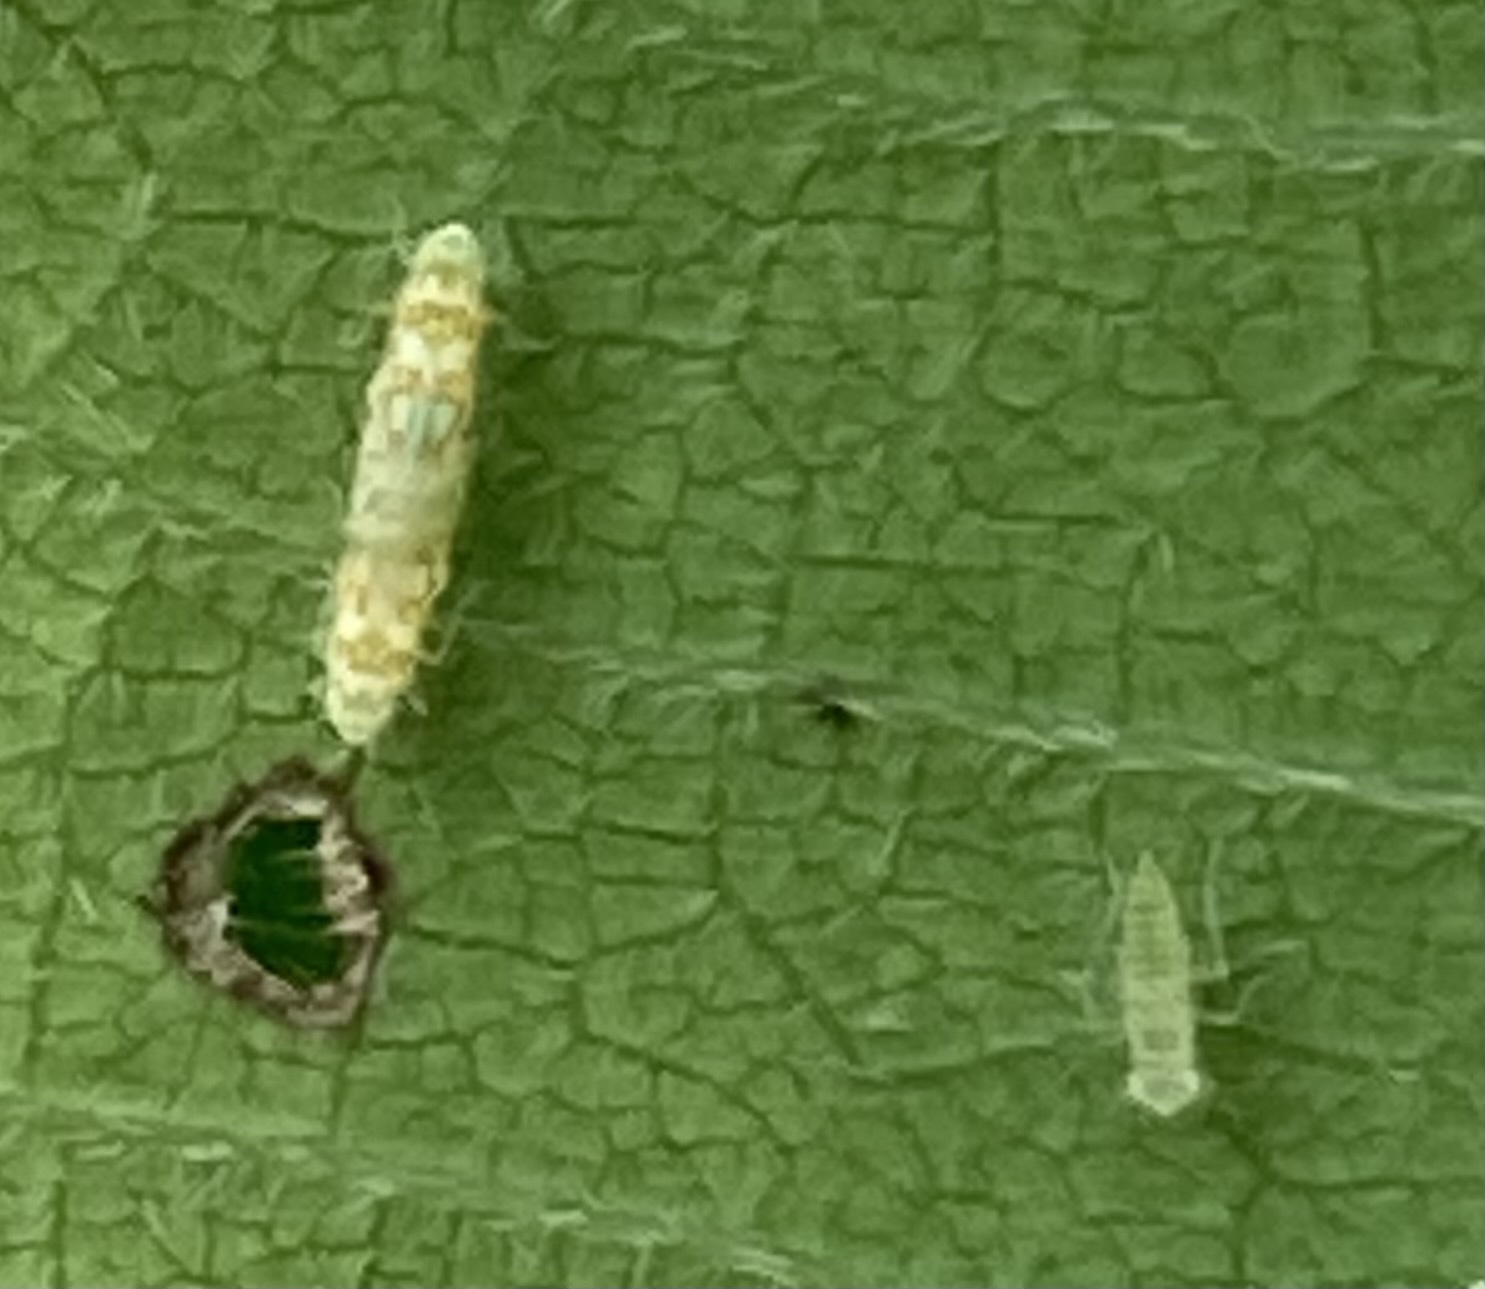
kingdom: Animalia
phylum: Arthropoda
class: Insecta
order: Hemiptera
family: Cicadellidae
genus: Protalebra
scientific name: Protalebra nexa
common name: Leafhopper
